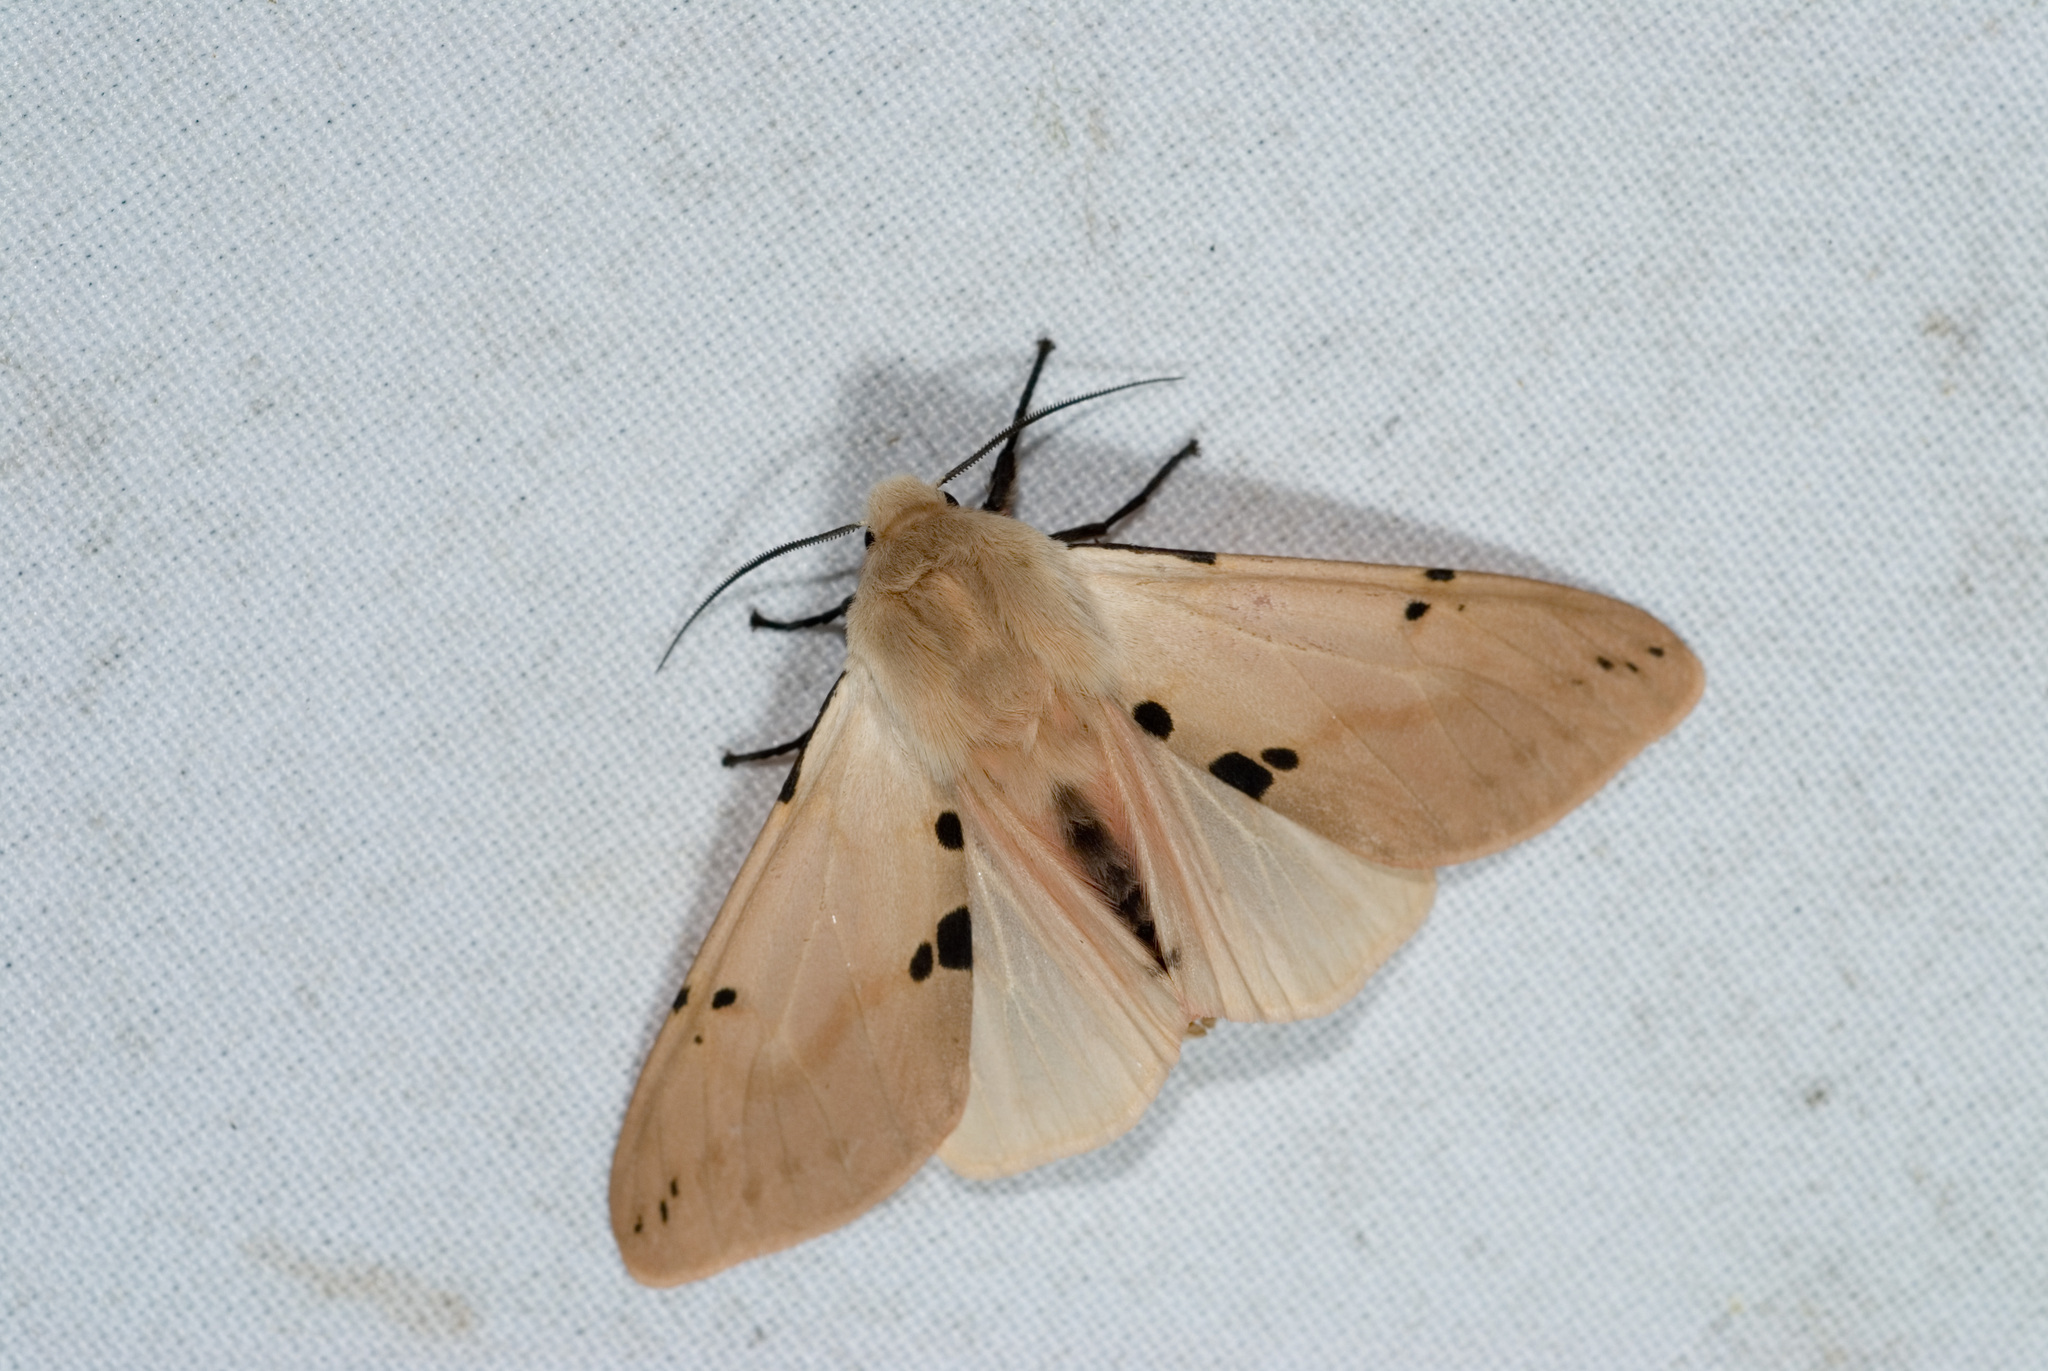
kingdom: Animalia
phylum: Arthropoda
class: Insecta
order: Lepidoptera
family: Erebidae
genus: Spilarctia
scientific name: Spilarctia clava
